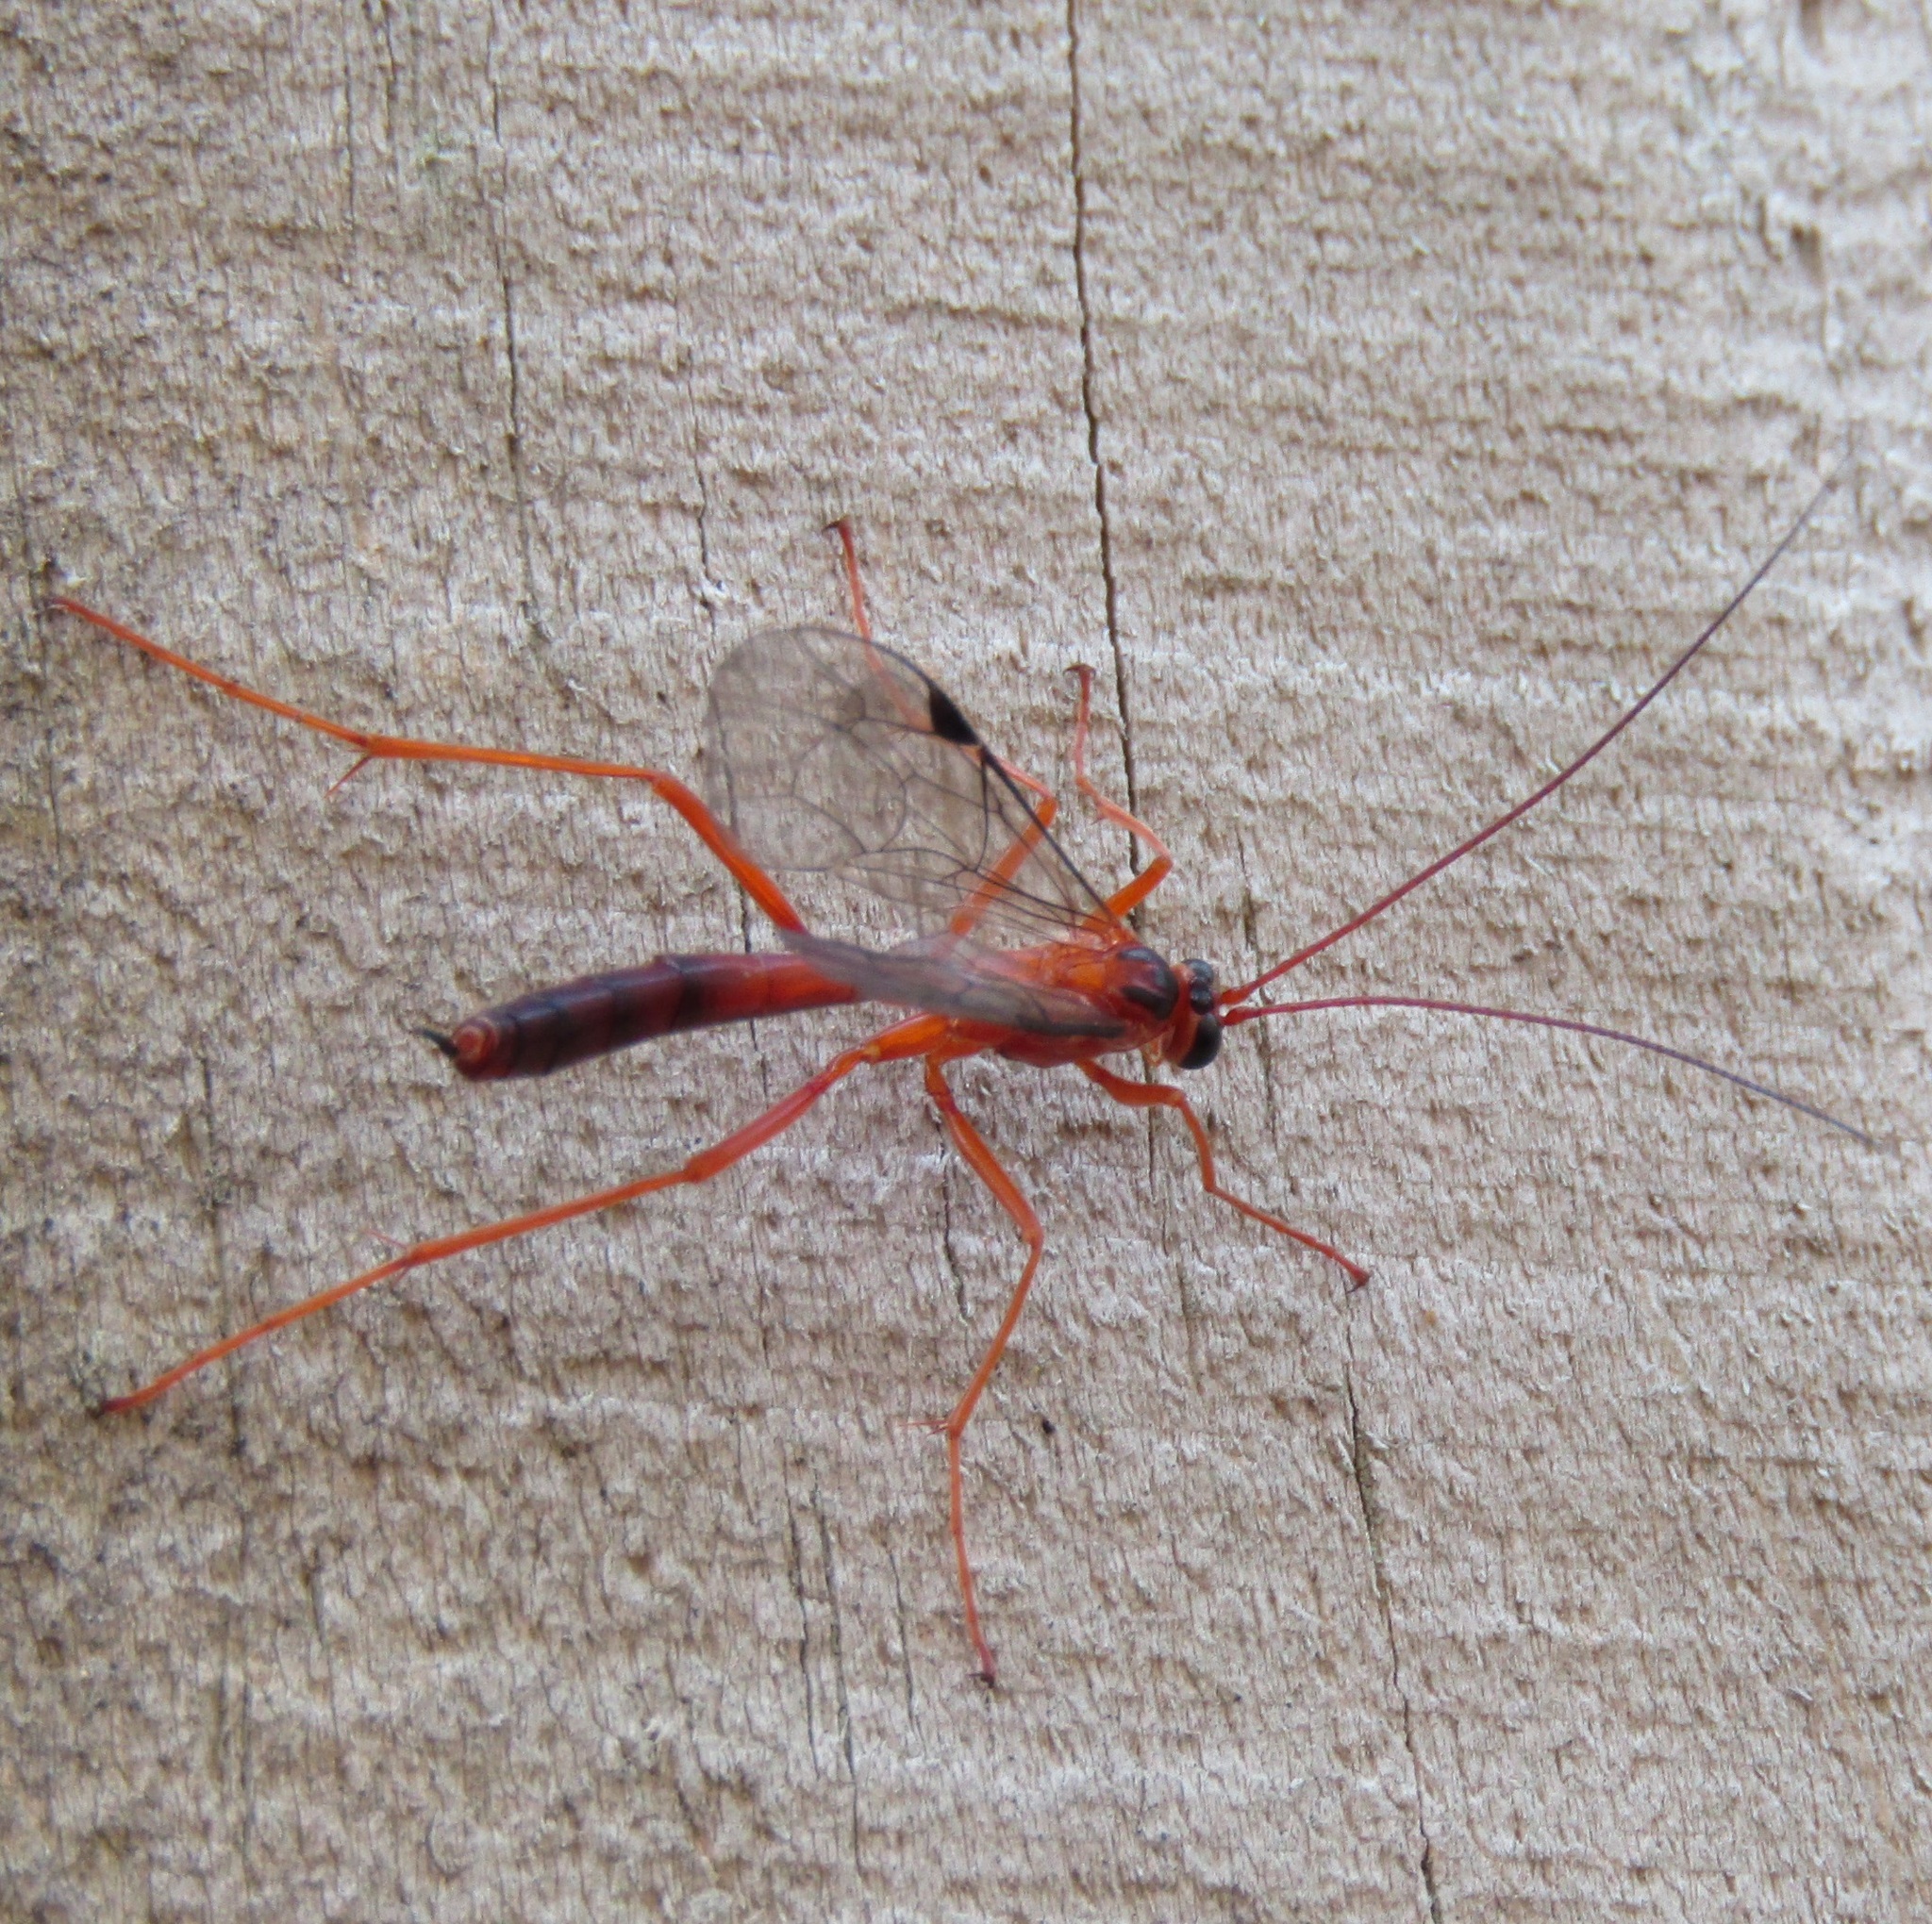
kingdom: Animalia
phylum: Arthropoda
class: Insecta
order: Hymenoptera
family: Ichneumonidae
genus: Netelia
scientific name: Netelia ephippiata
